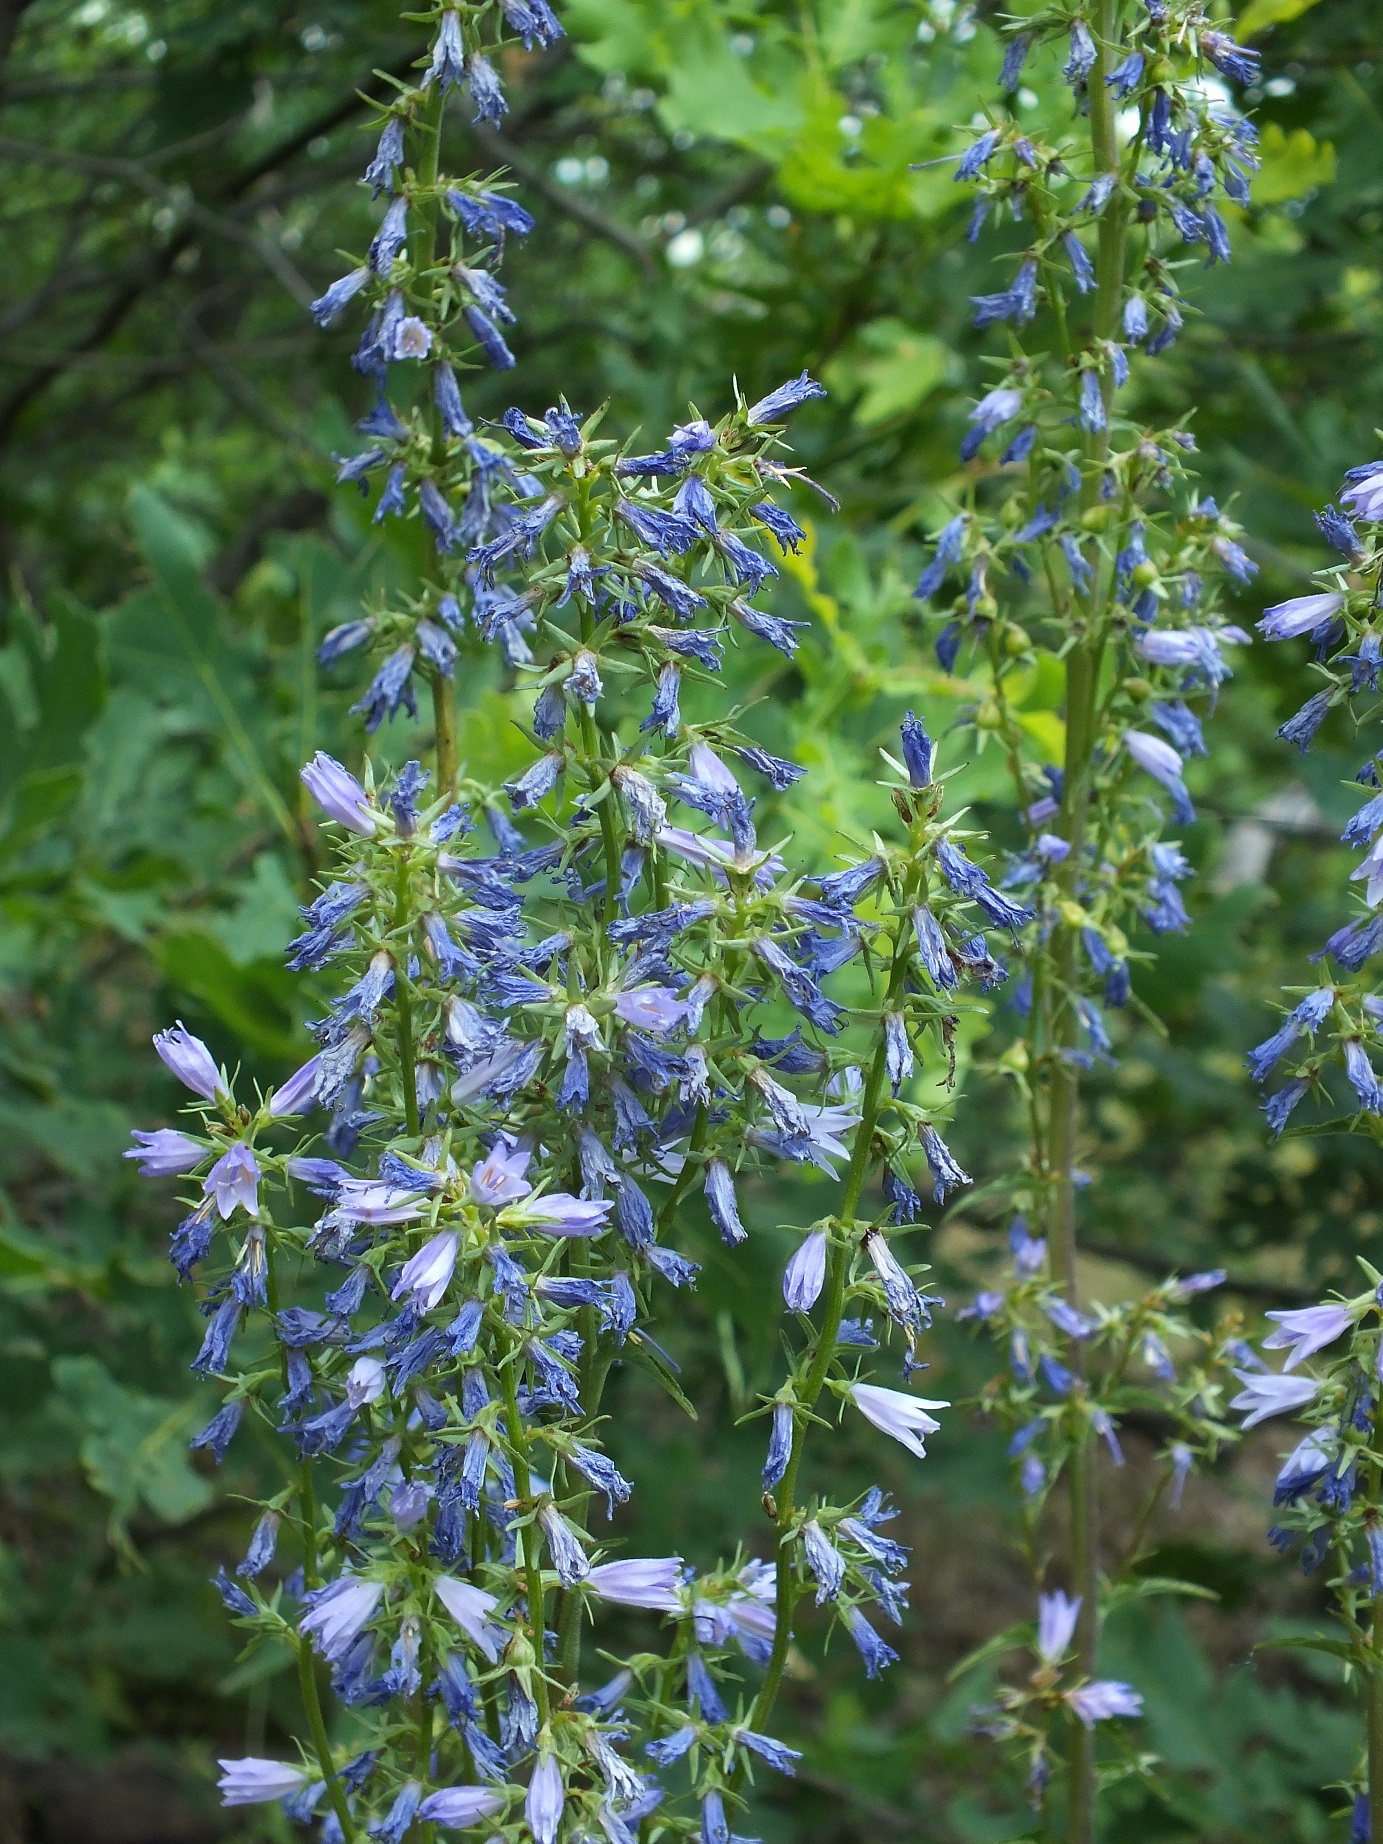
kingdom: Plantae
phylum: Tracheophyta
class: Magnoliopsida
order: Asterales
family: Campanulaceae
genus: Campanula
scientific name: Campanula bononiensis
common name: Pale bellflower
